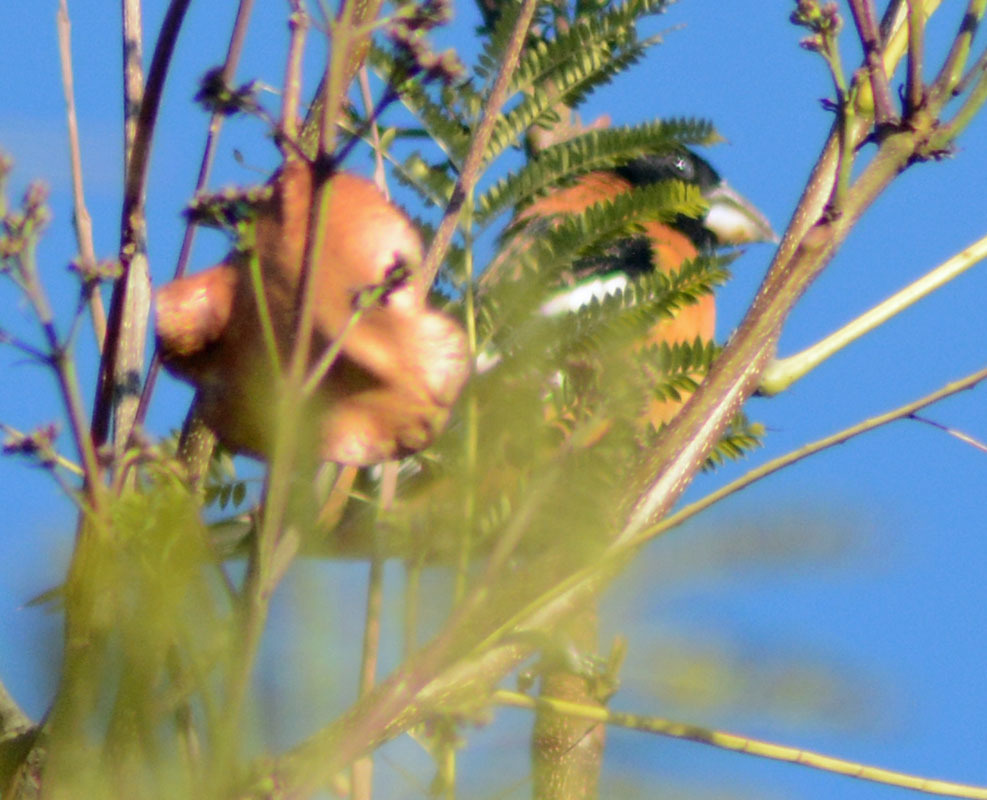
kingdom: Animalia
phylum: Chordata
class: Aves
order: Passeriformes
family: Cardinalidae
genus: Pheucticus
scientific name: Pheucticus melanocephalus
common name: Black-headed grosbeak
